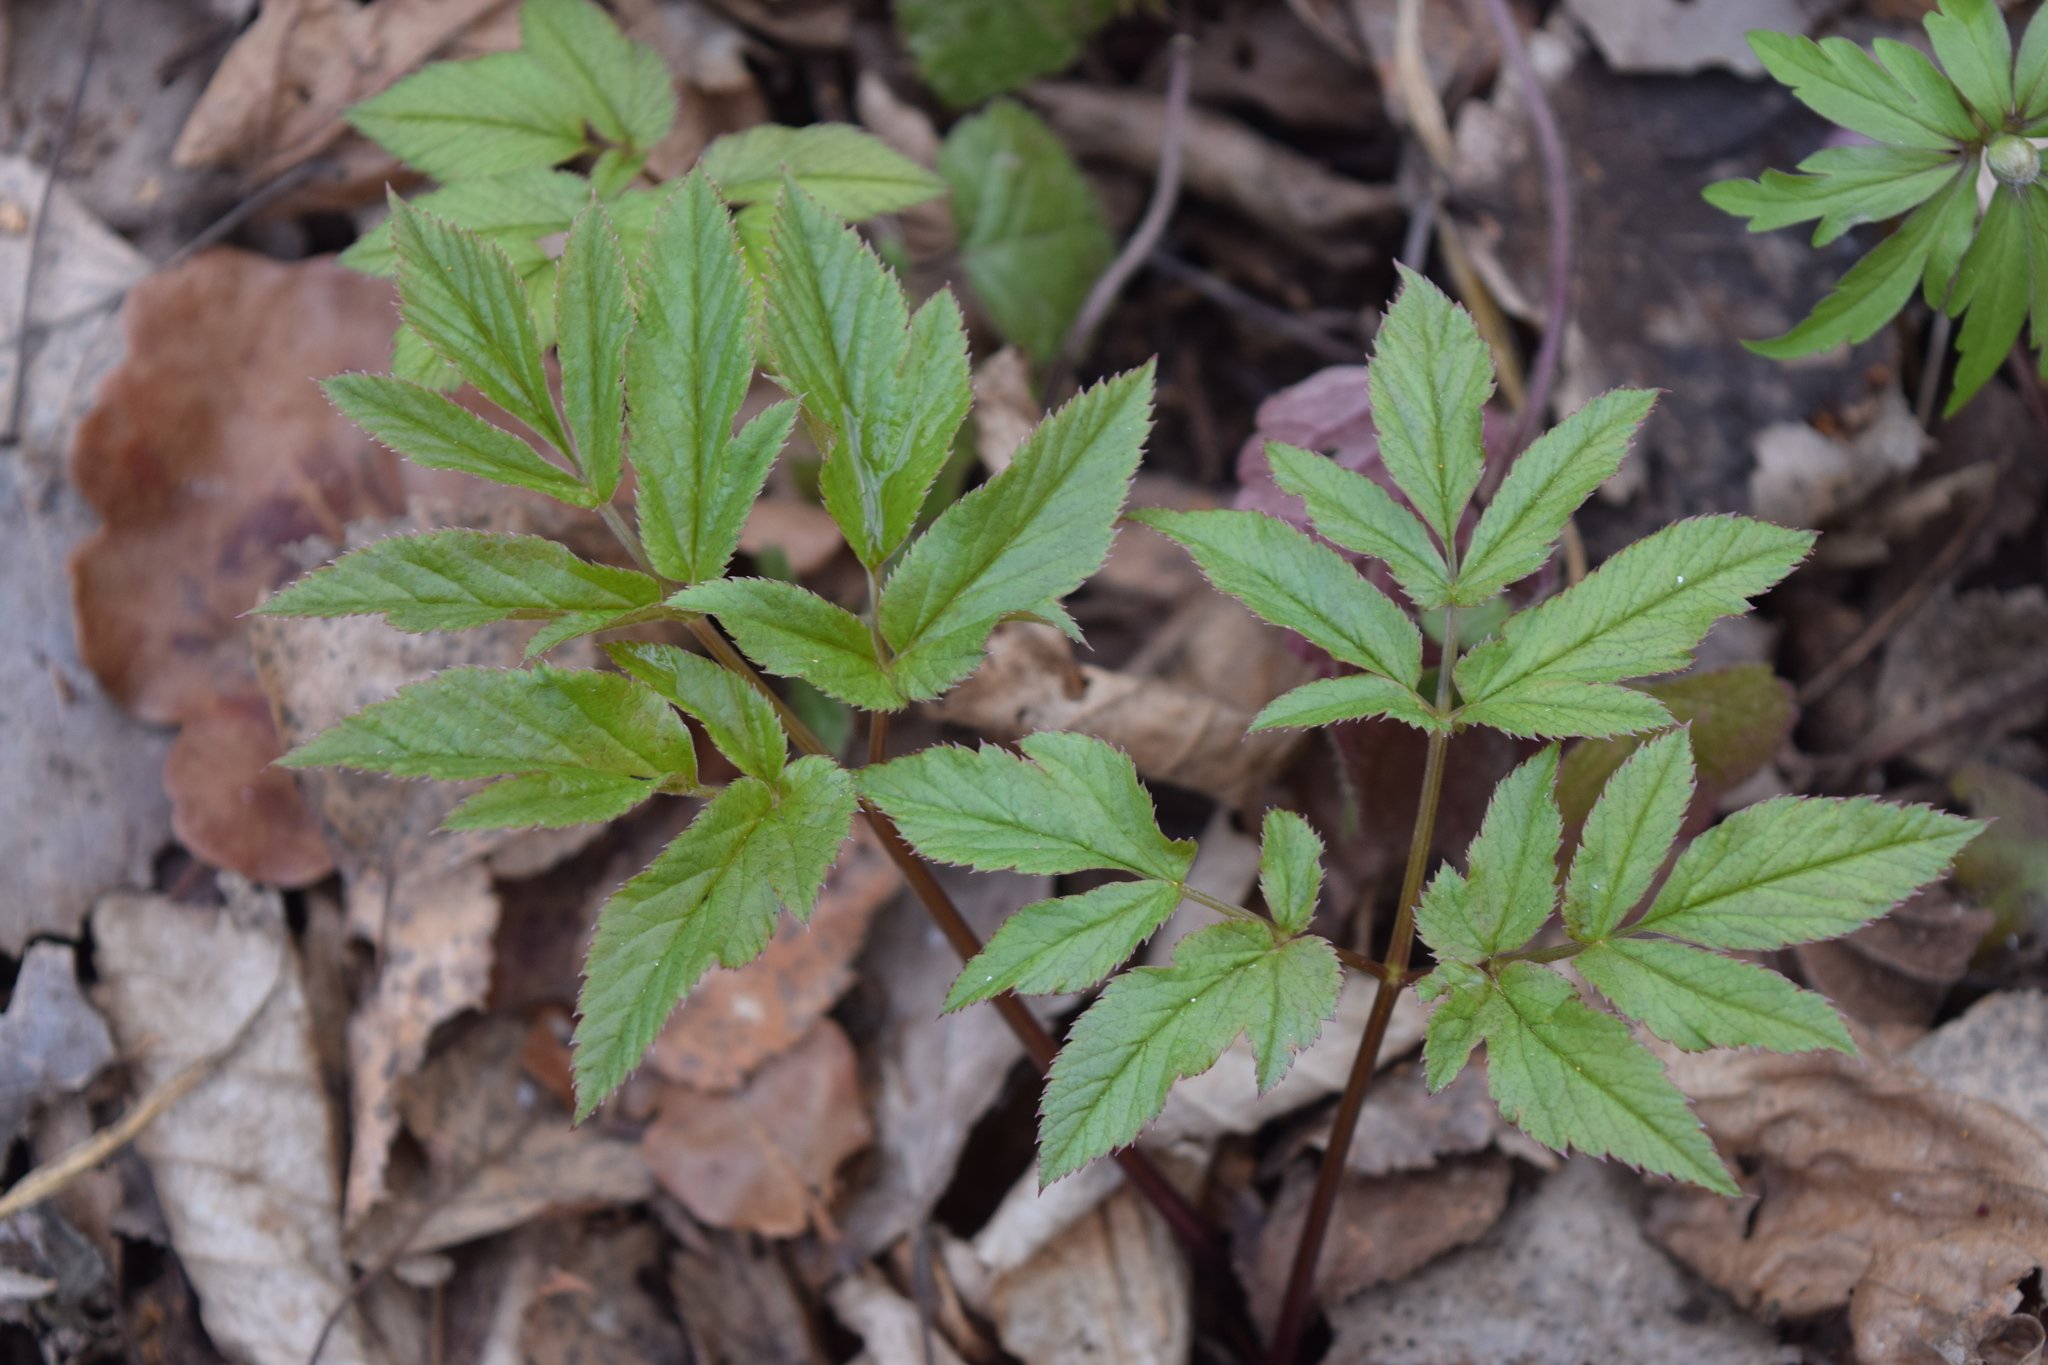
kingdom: Plantae
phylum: Tracheophyta
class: Magnoliopsida
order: Apiales
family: Apiaceae
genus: Aegopodium
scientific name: Aegopodium podagraria
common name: Ground-elder
